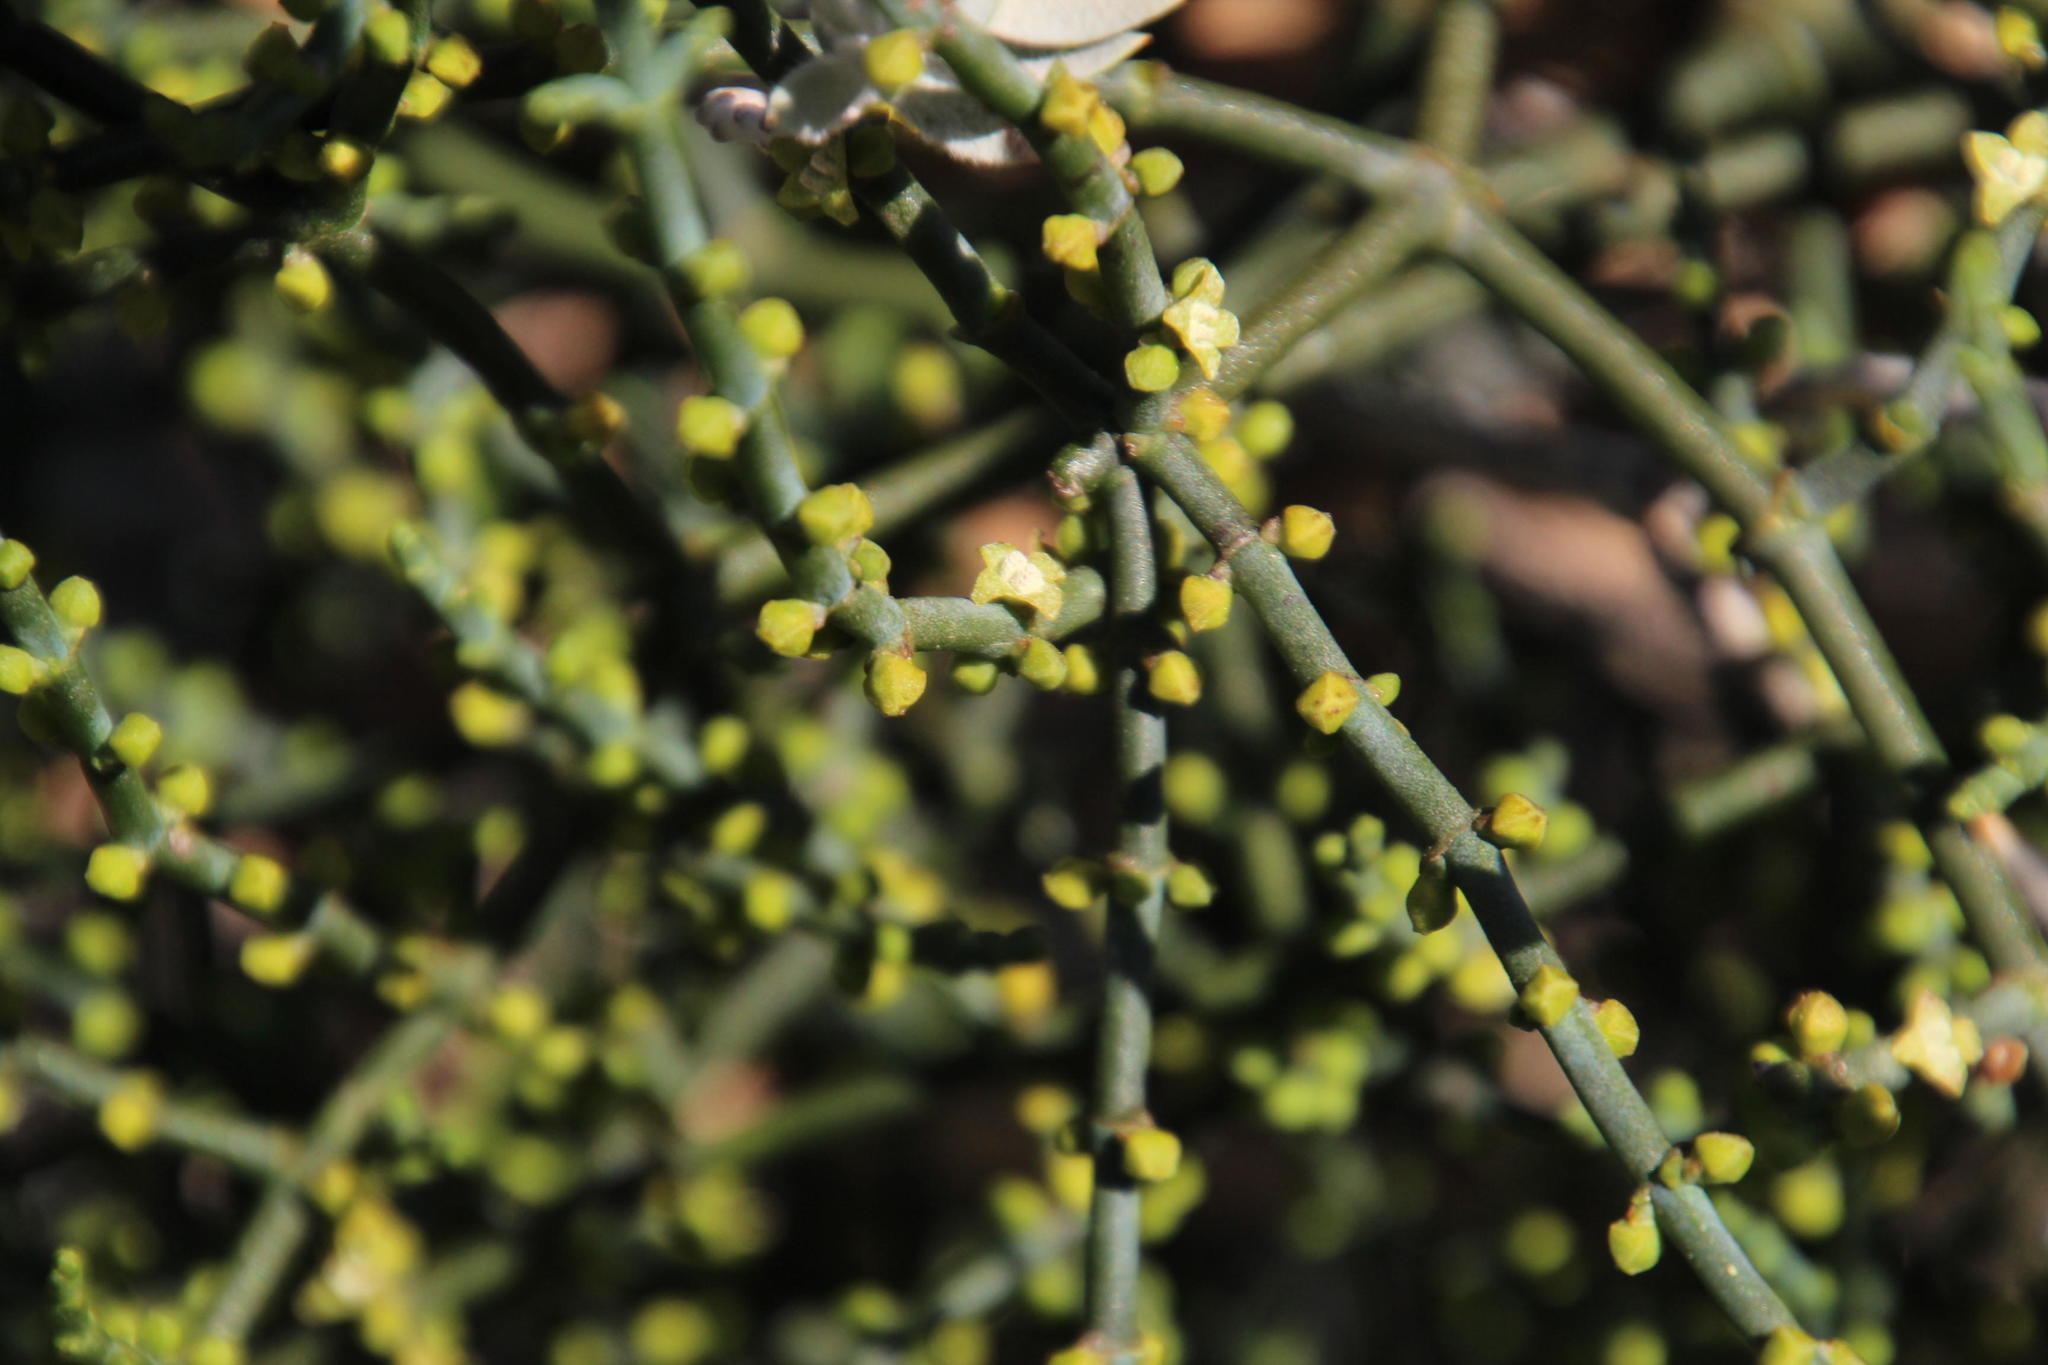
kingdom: Plantae
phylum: Tracheophyta
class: Magnoliopsida
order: Santalales
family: Viscaceae
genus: Viscum
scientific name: Viscum capense
